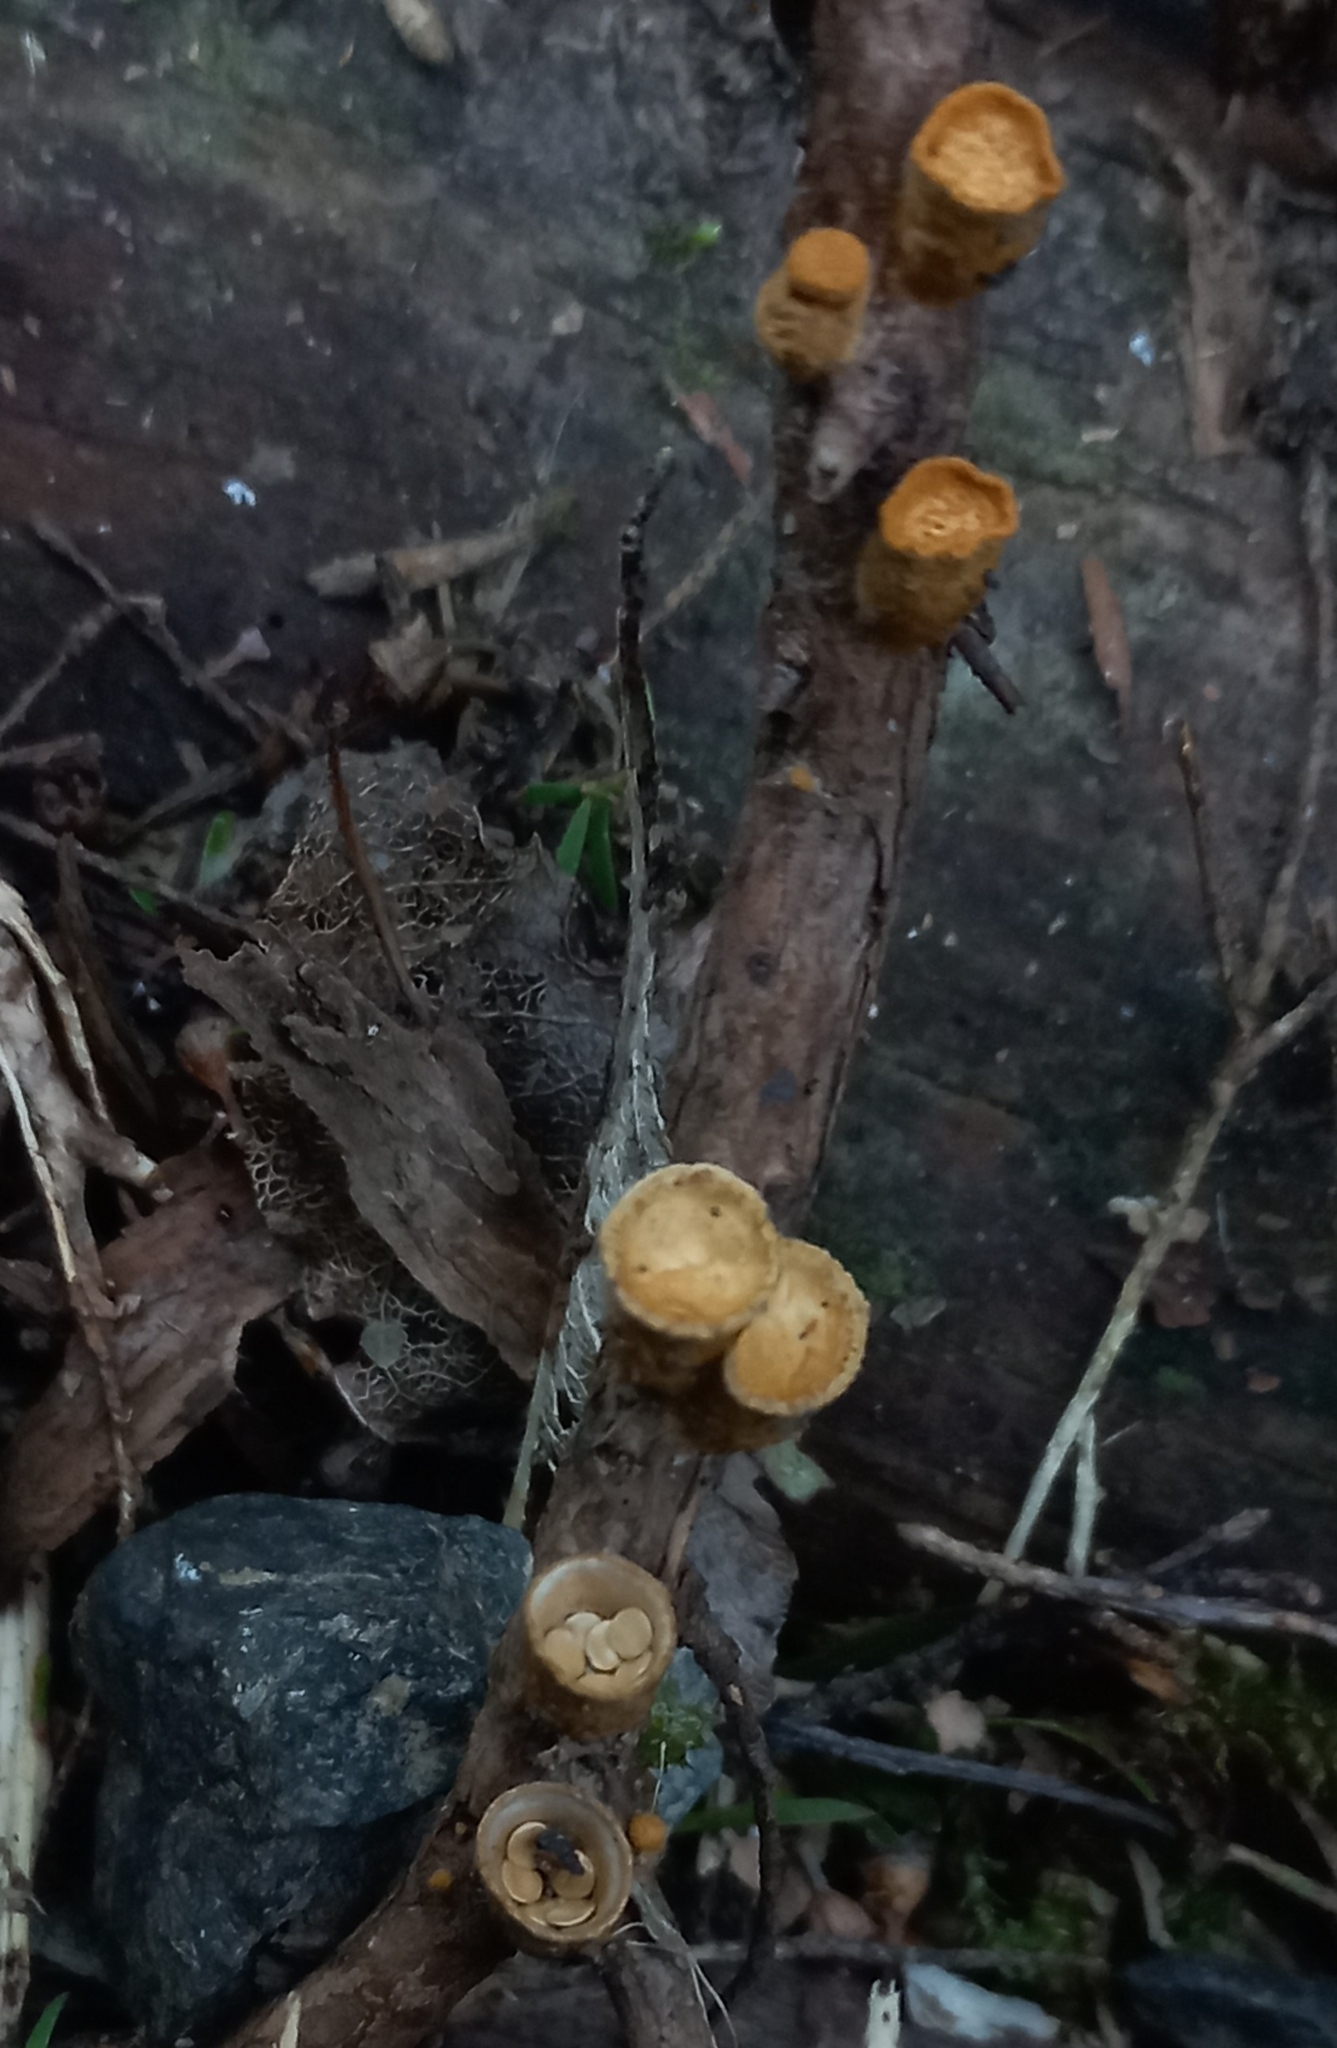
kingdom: Fungi
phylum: Basidiomycota
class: Agaricomycetes
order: Agaricales
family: Nidulariaceae
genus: Crucibulum
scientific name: Crucibulum simile
